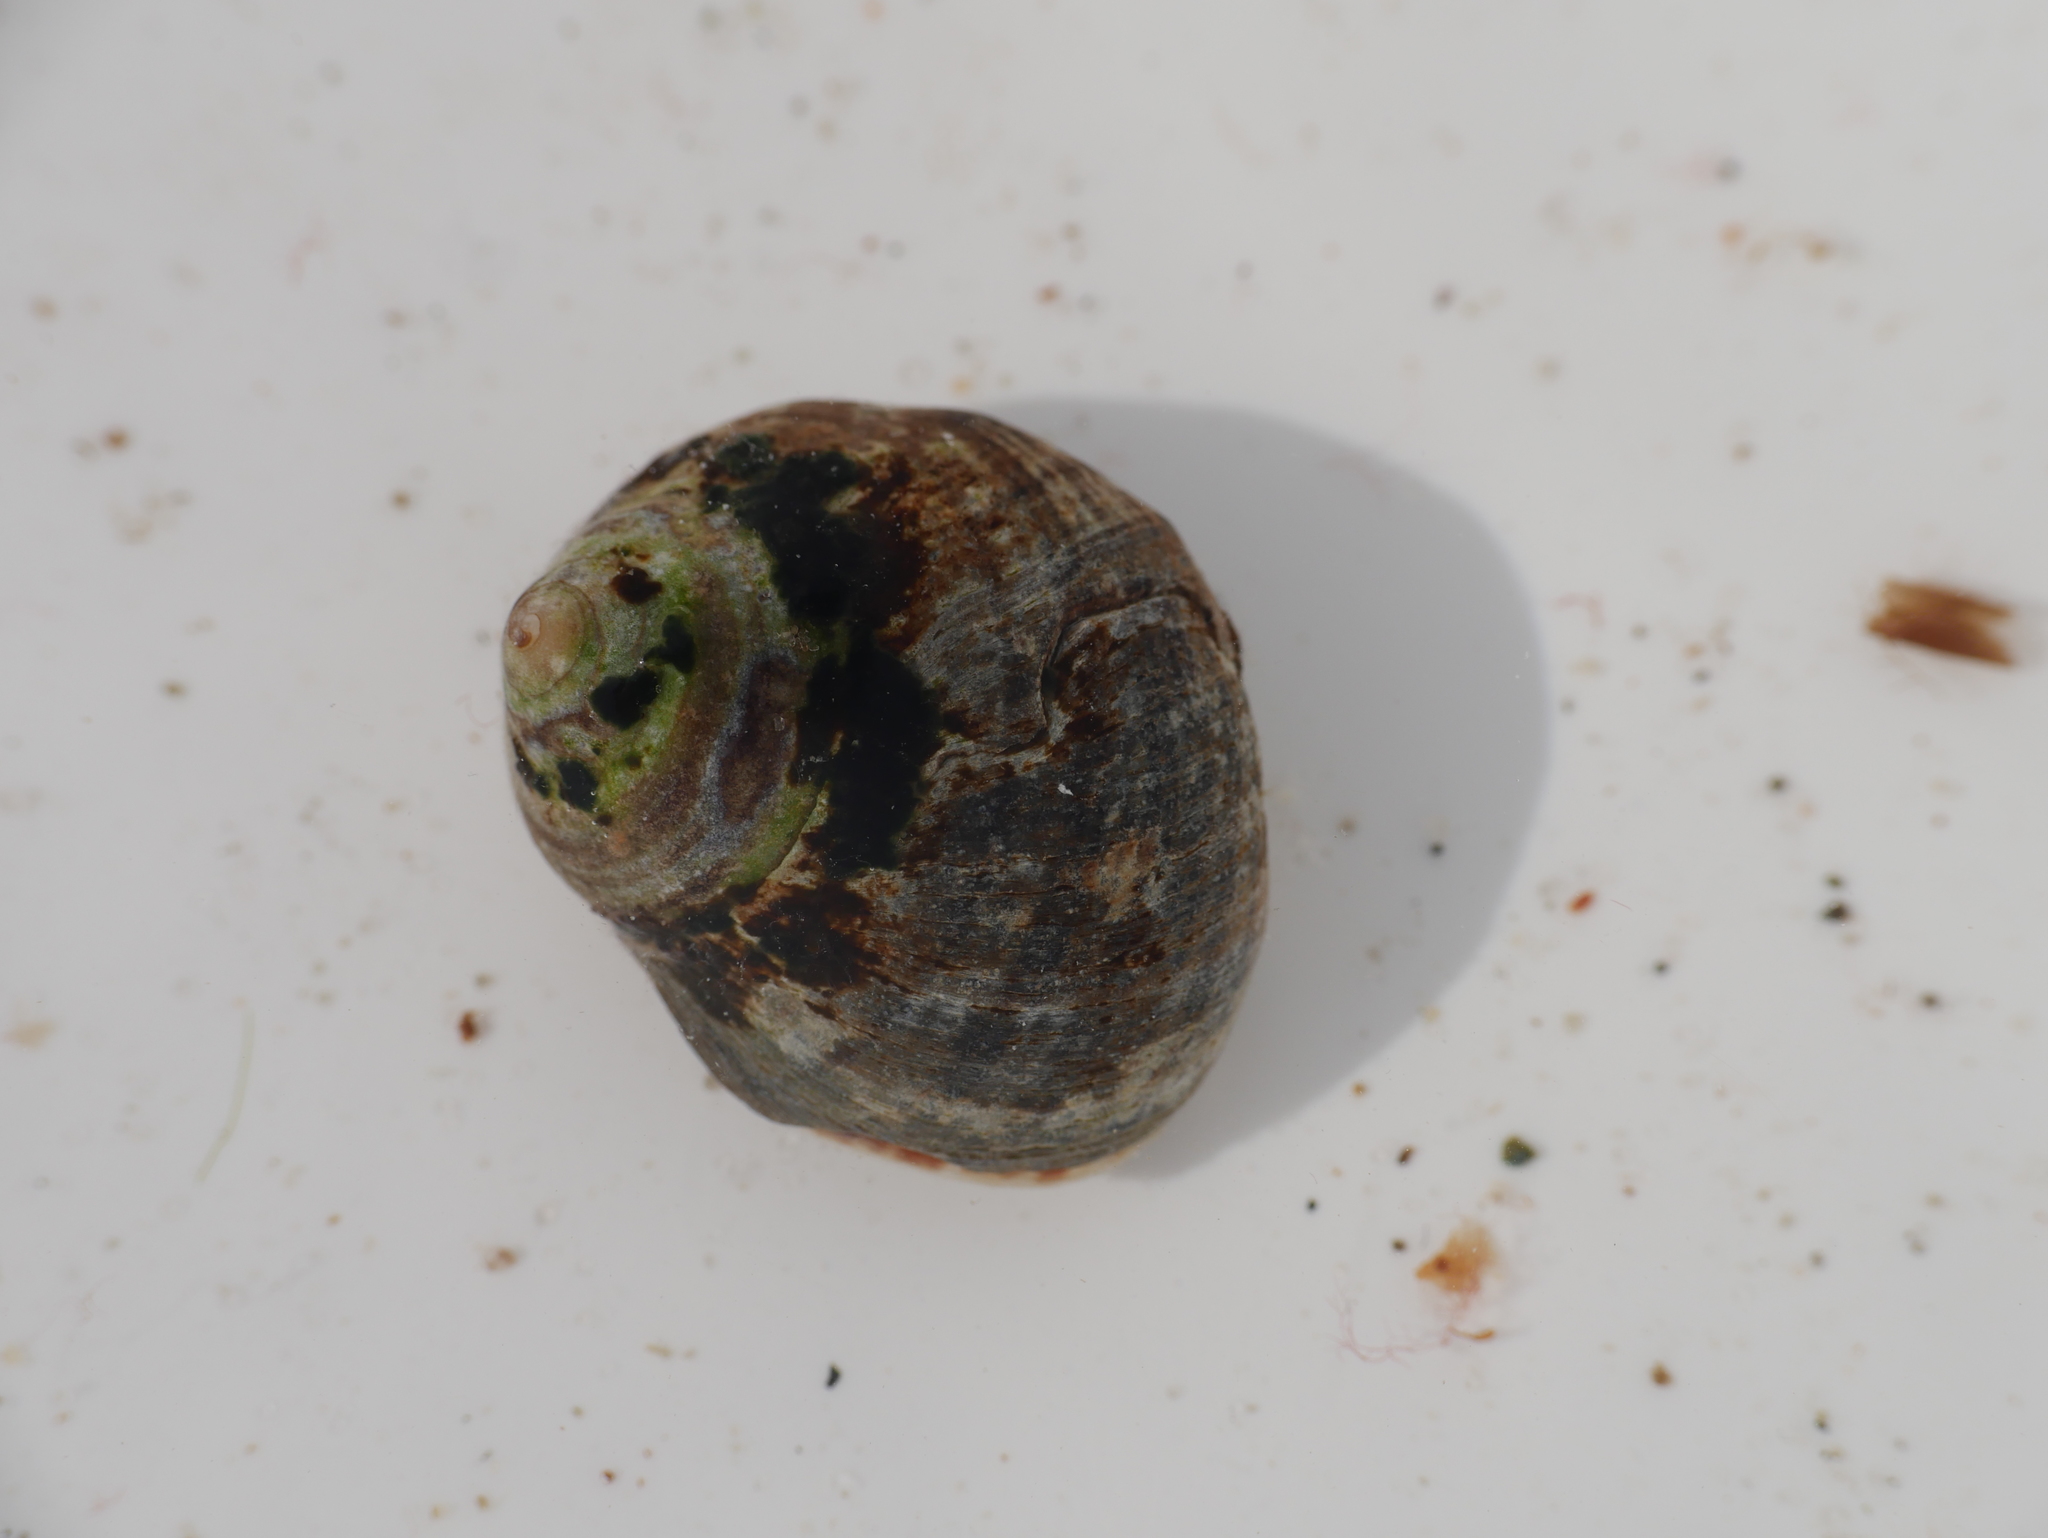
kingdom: Animalia
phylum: Mollusca
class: Gastropoda
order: Littorinimorpha
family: Littorinidae
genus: Littorina
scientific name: Littorina littorea
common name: Common periwinkle
